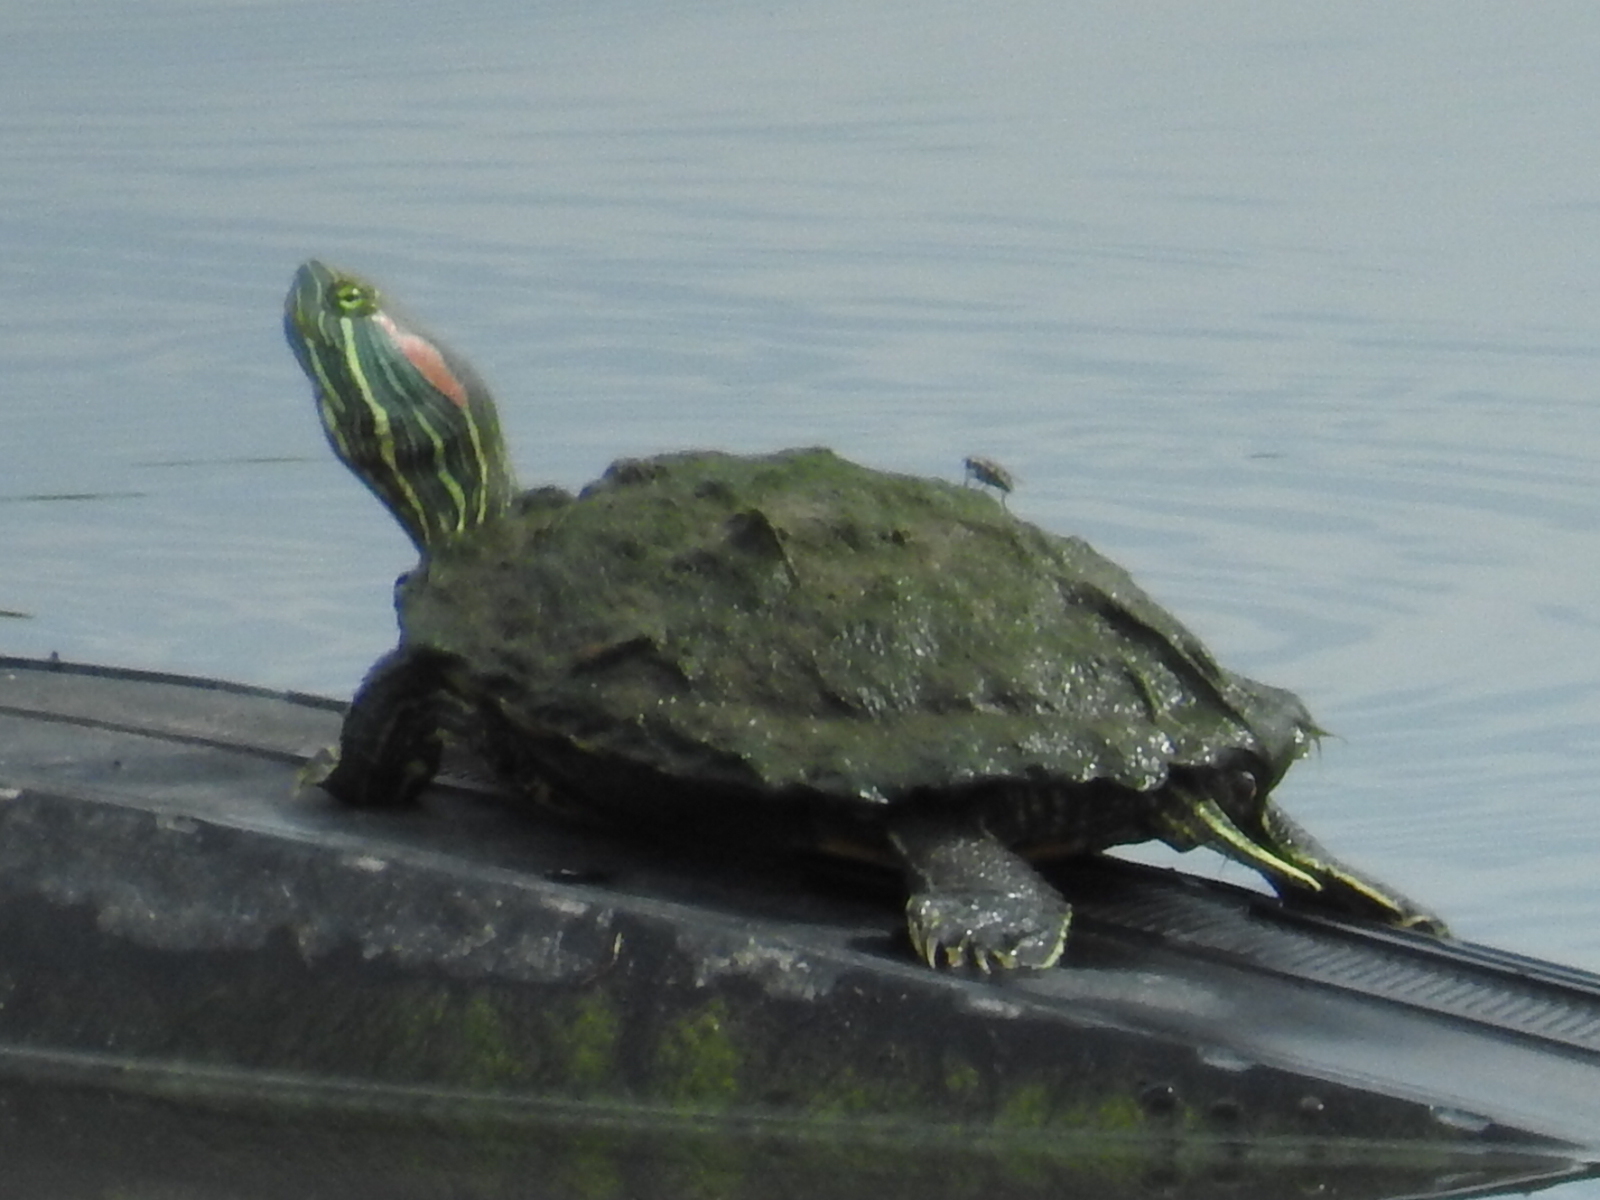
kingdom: Animalia
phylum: Chordata
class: Testudines
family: Emydidae
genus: Trachemys
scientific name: Trachemys scripta
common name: Slider
